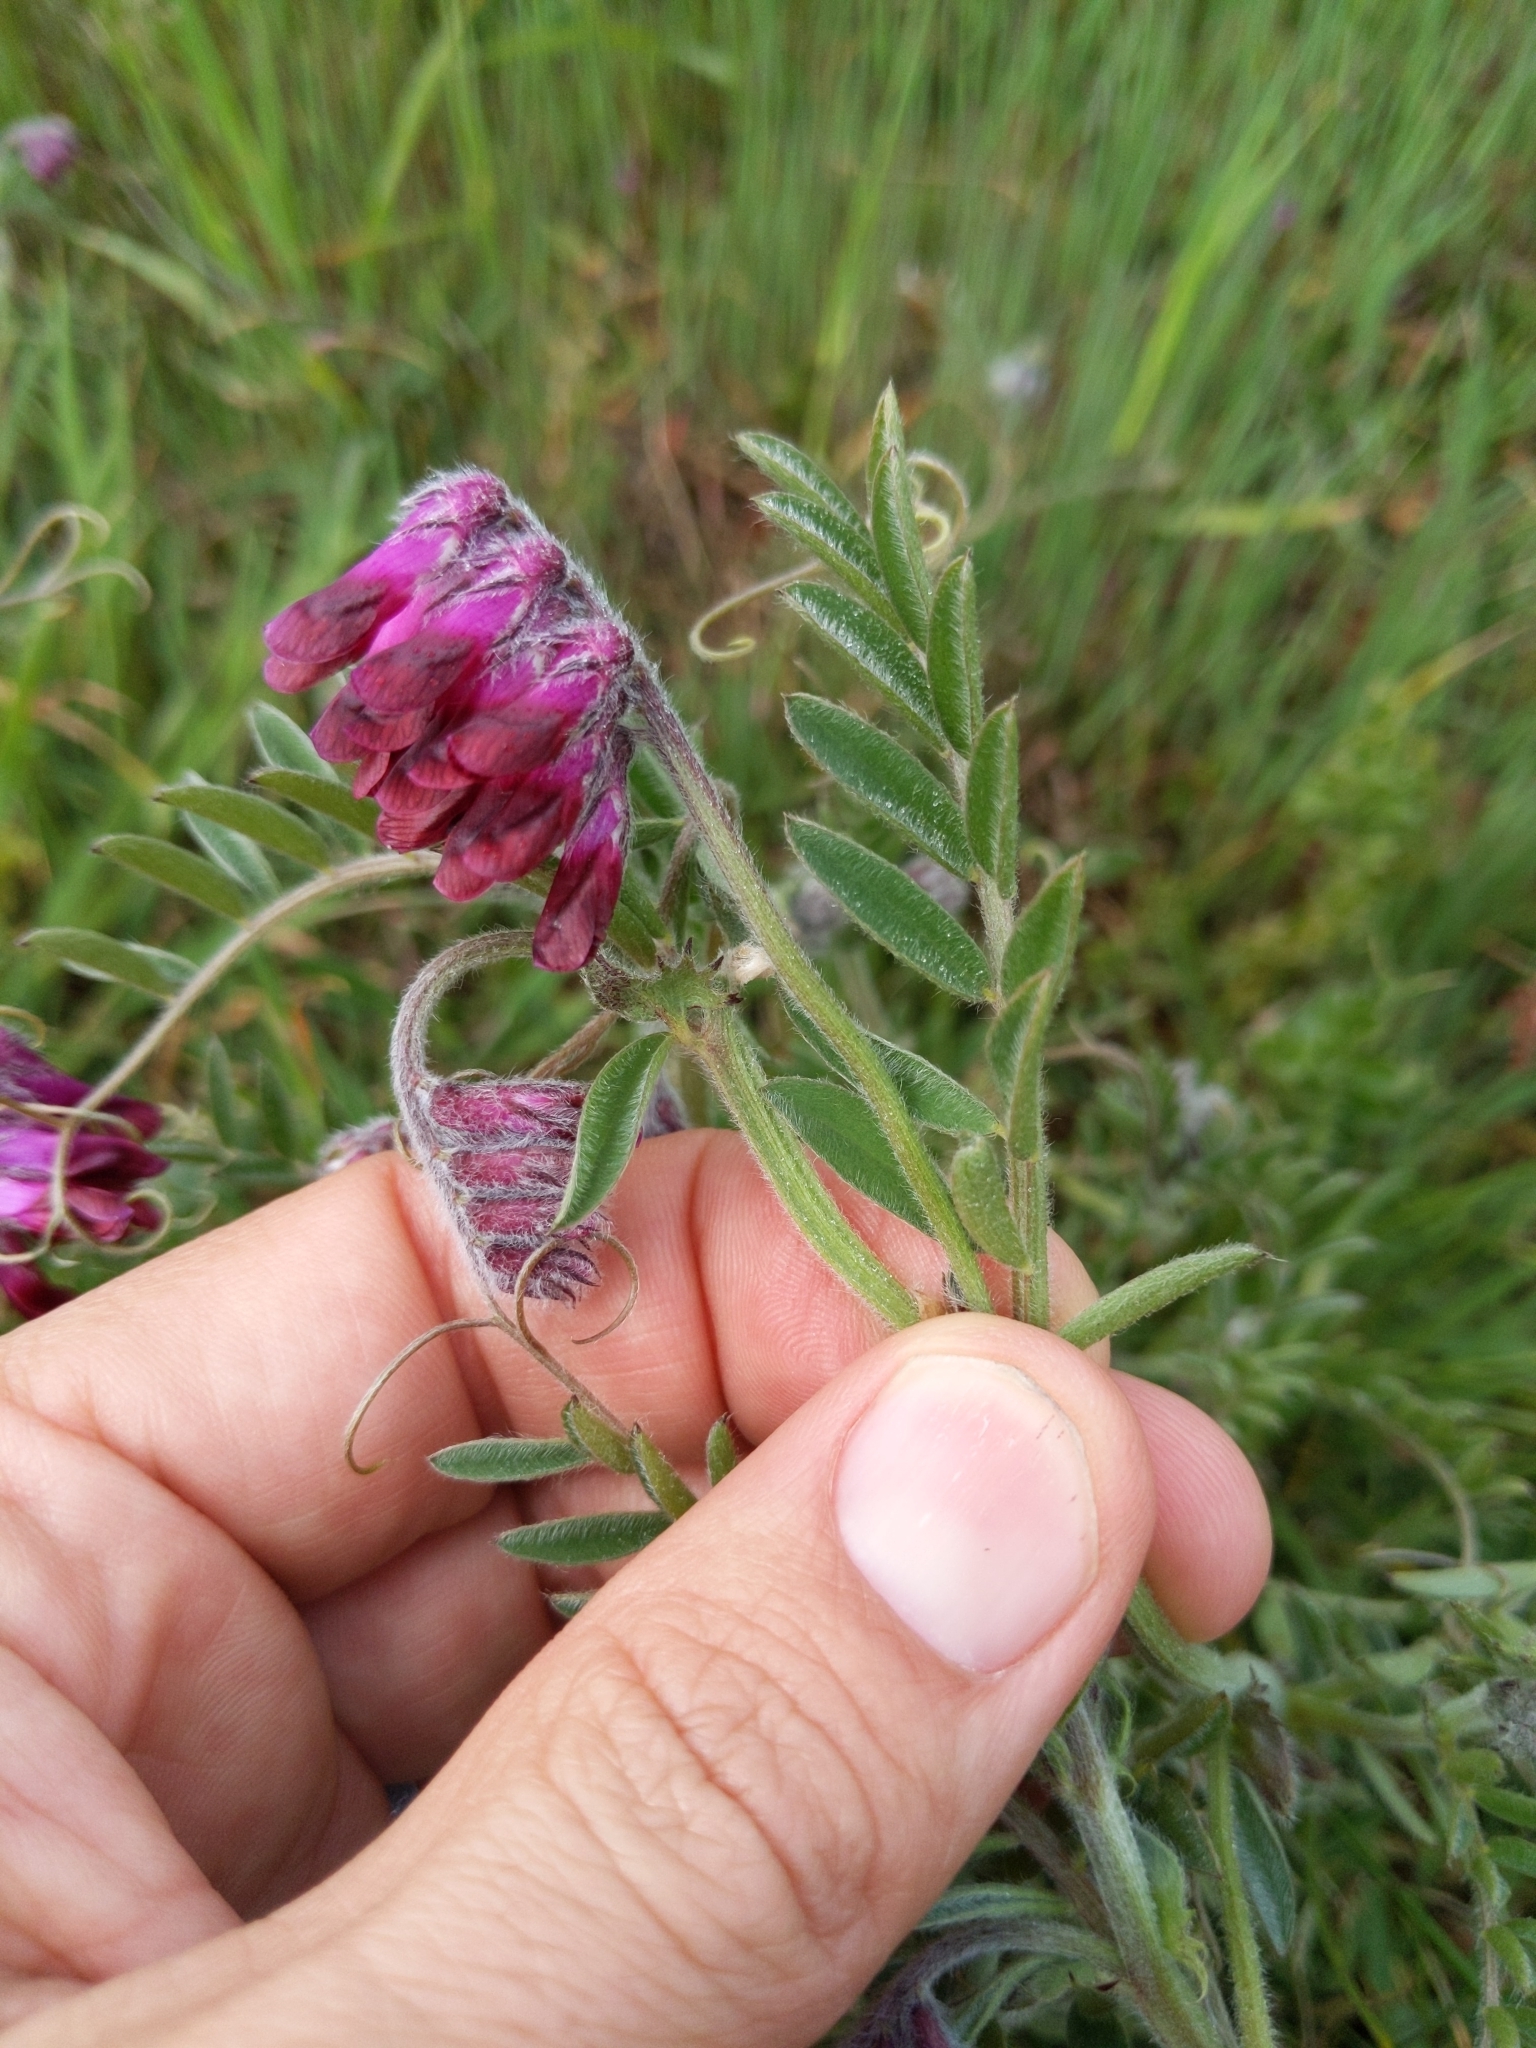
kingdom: Plantae
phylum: Tracheophyta
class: Magnoliopsida
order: Fabales
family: Fabaceae
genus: Vicia
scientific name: Vicia benghalensis
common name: Purple vetch
